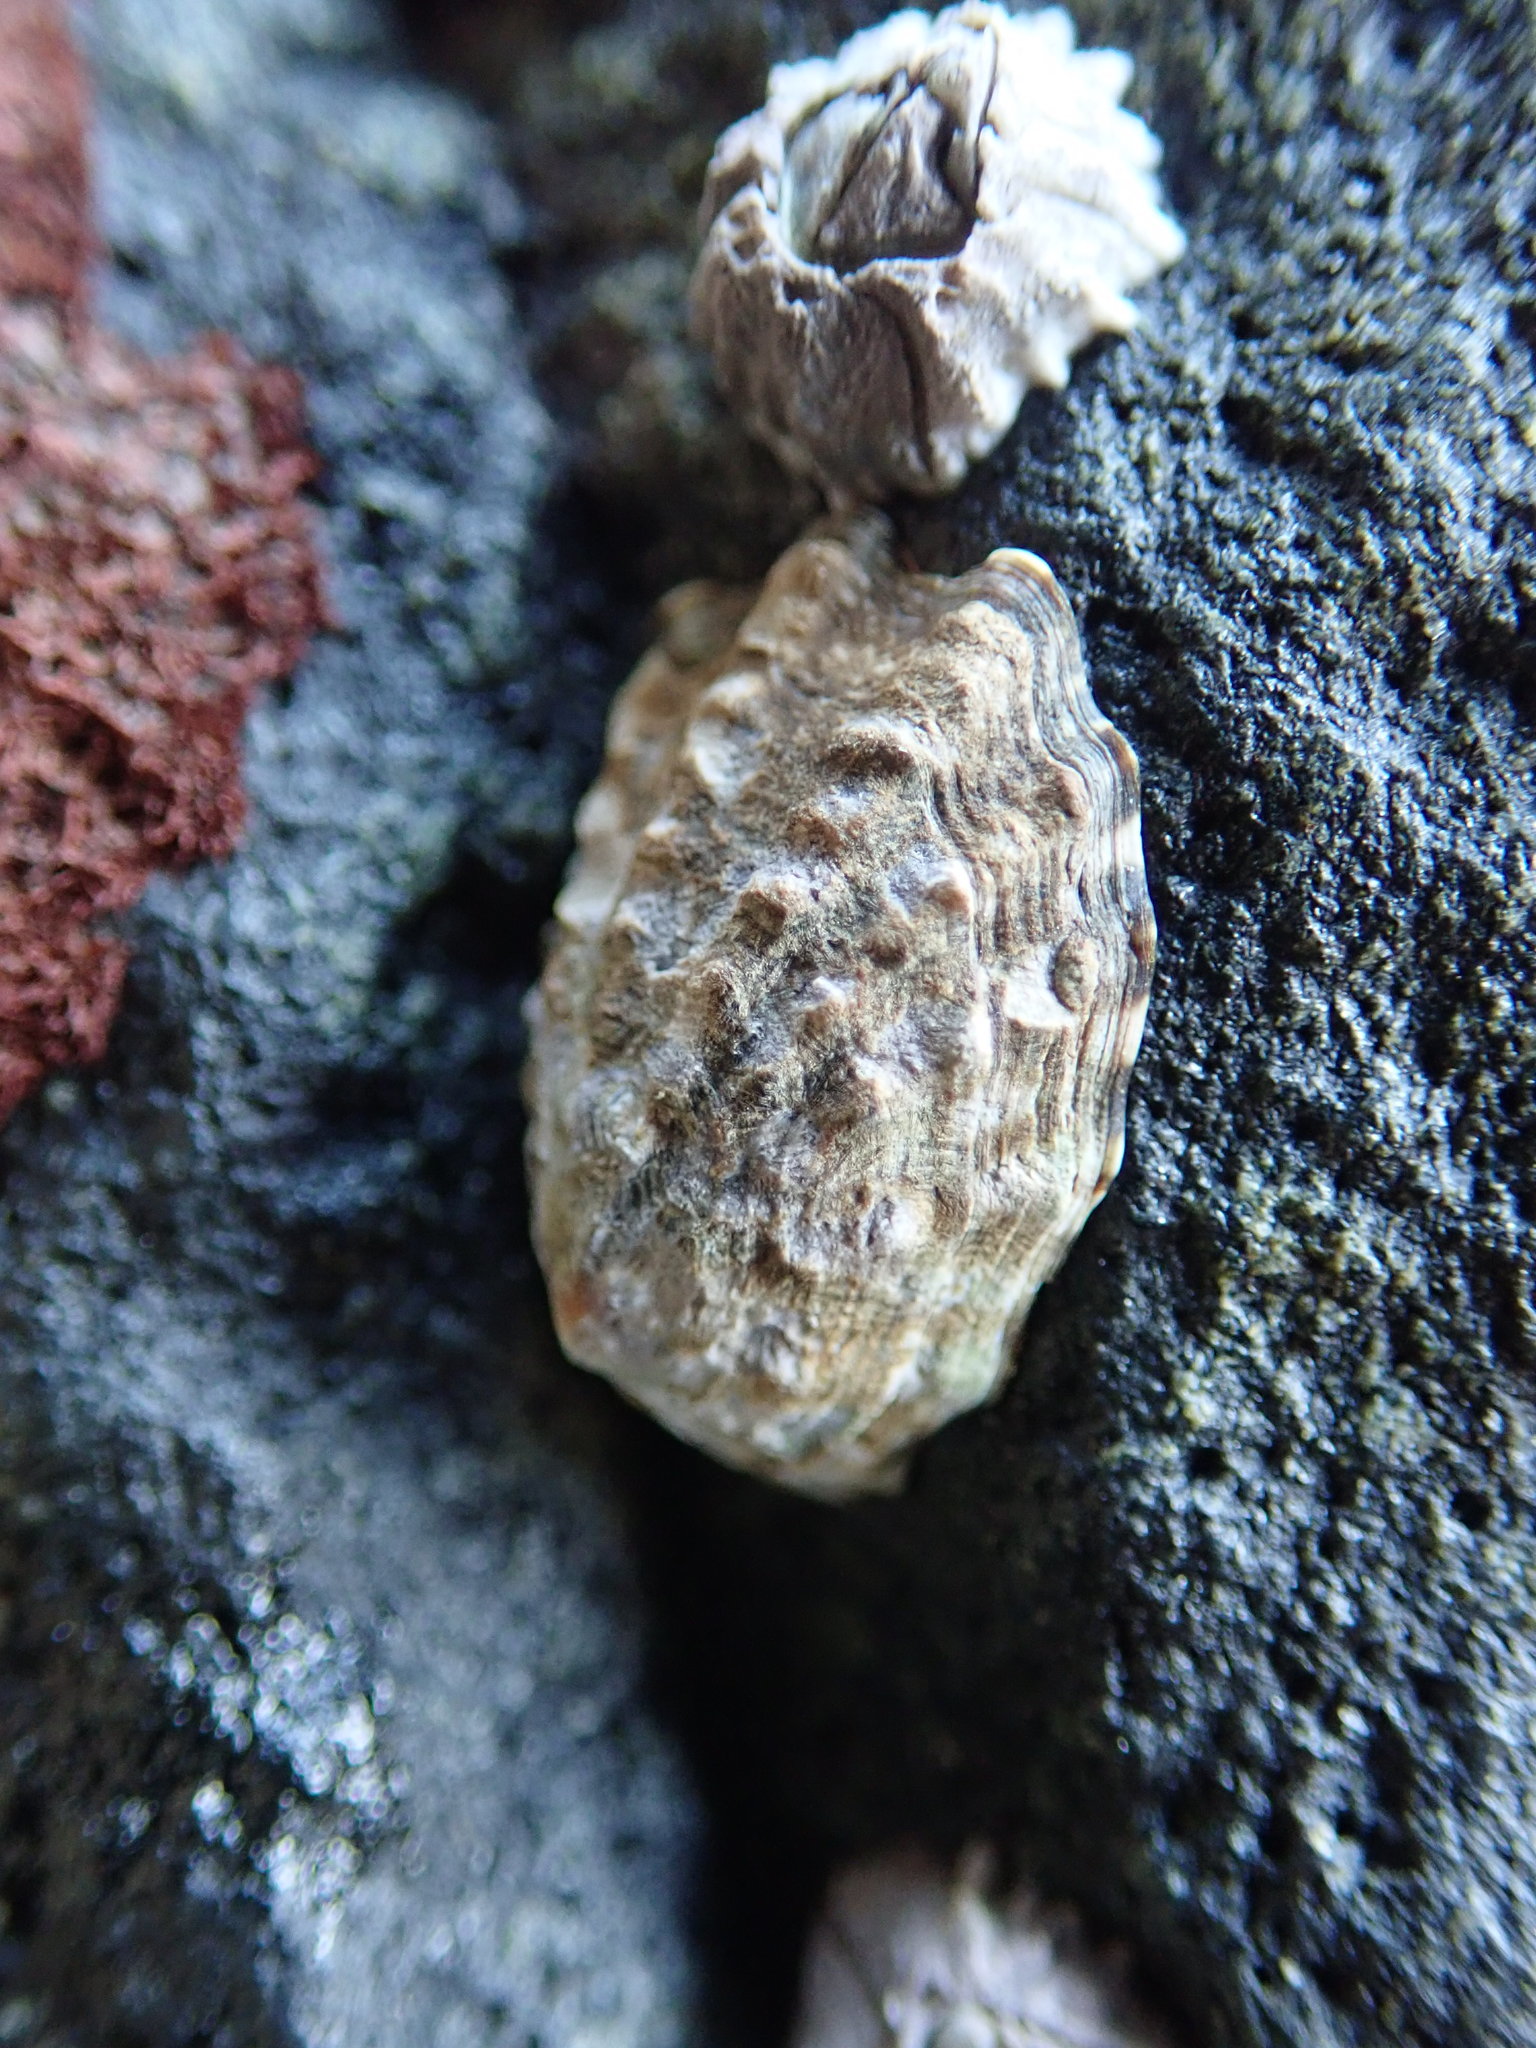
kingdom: Animalia
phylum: Mollusca
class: Gastropoda
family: Lottiidae
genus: Lottia
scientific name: Lottia digitalis
